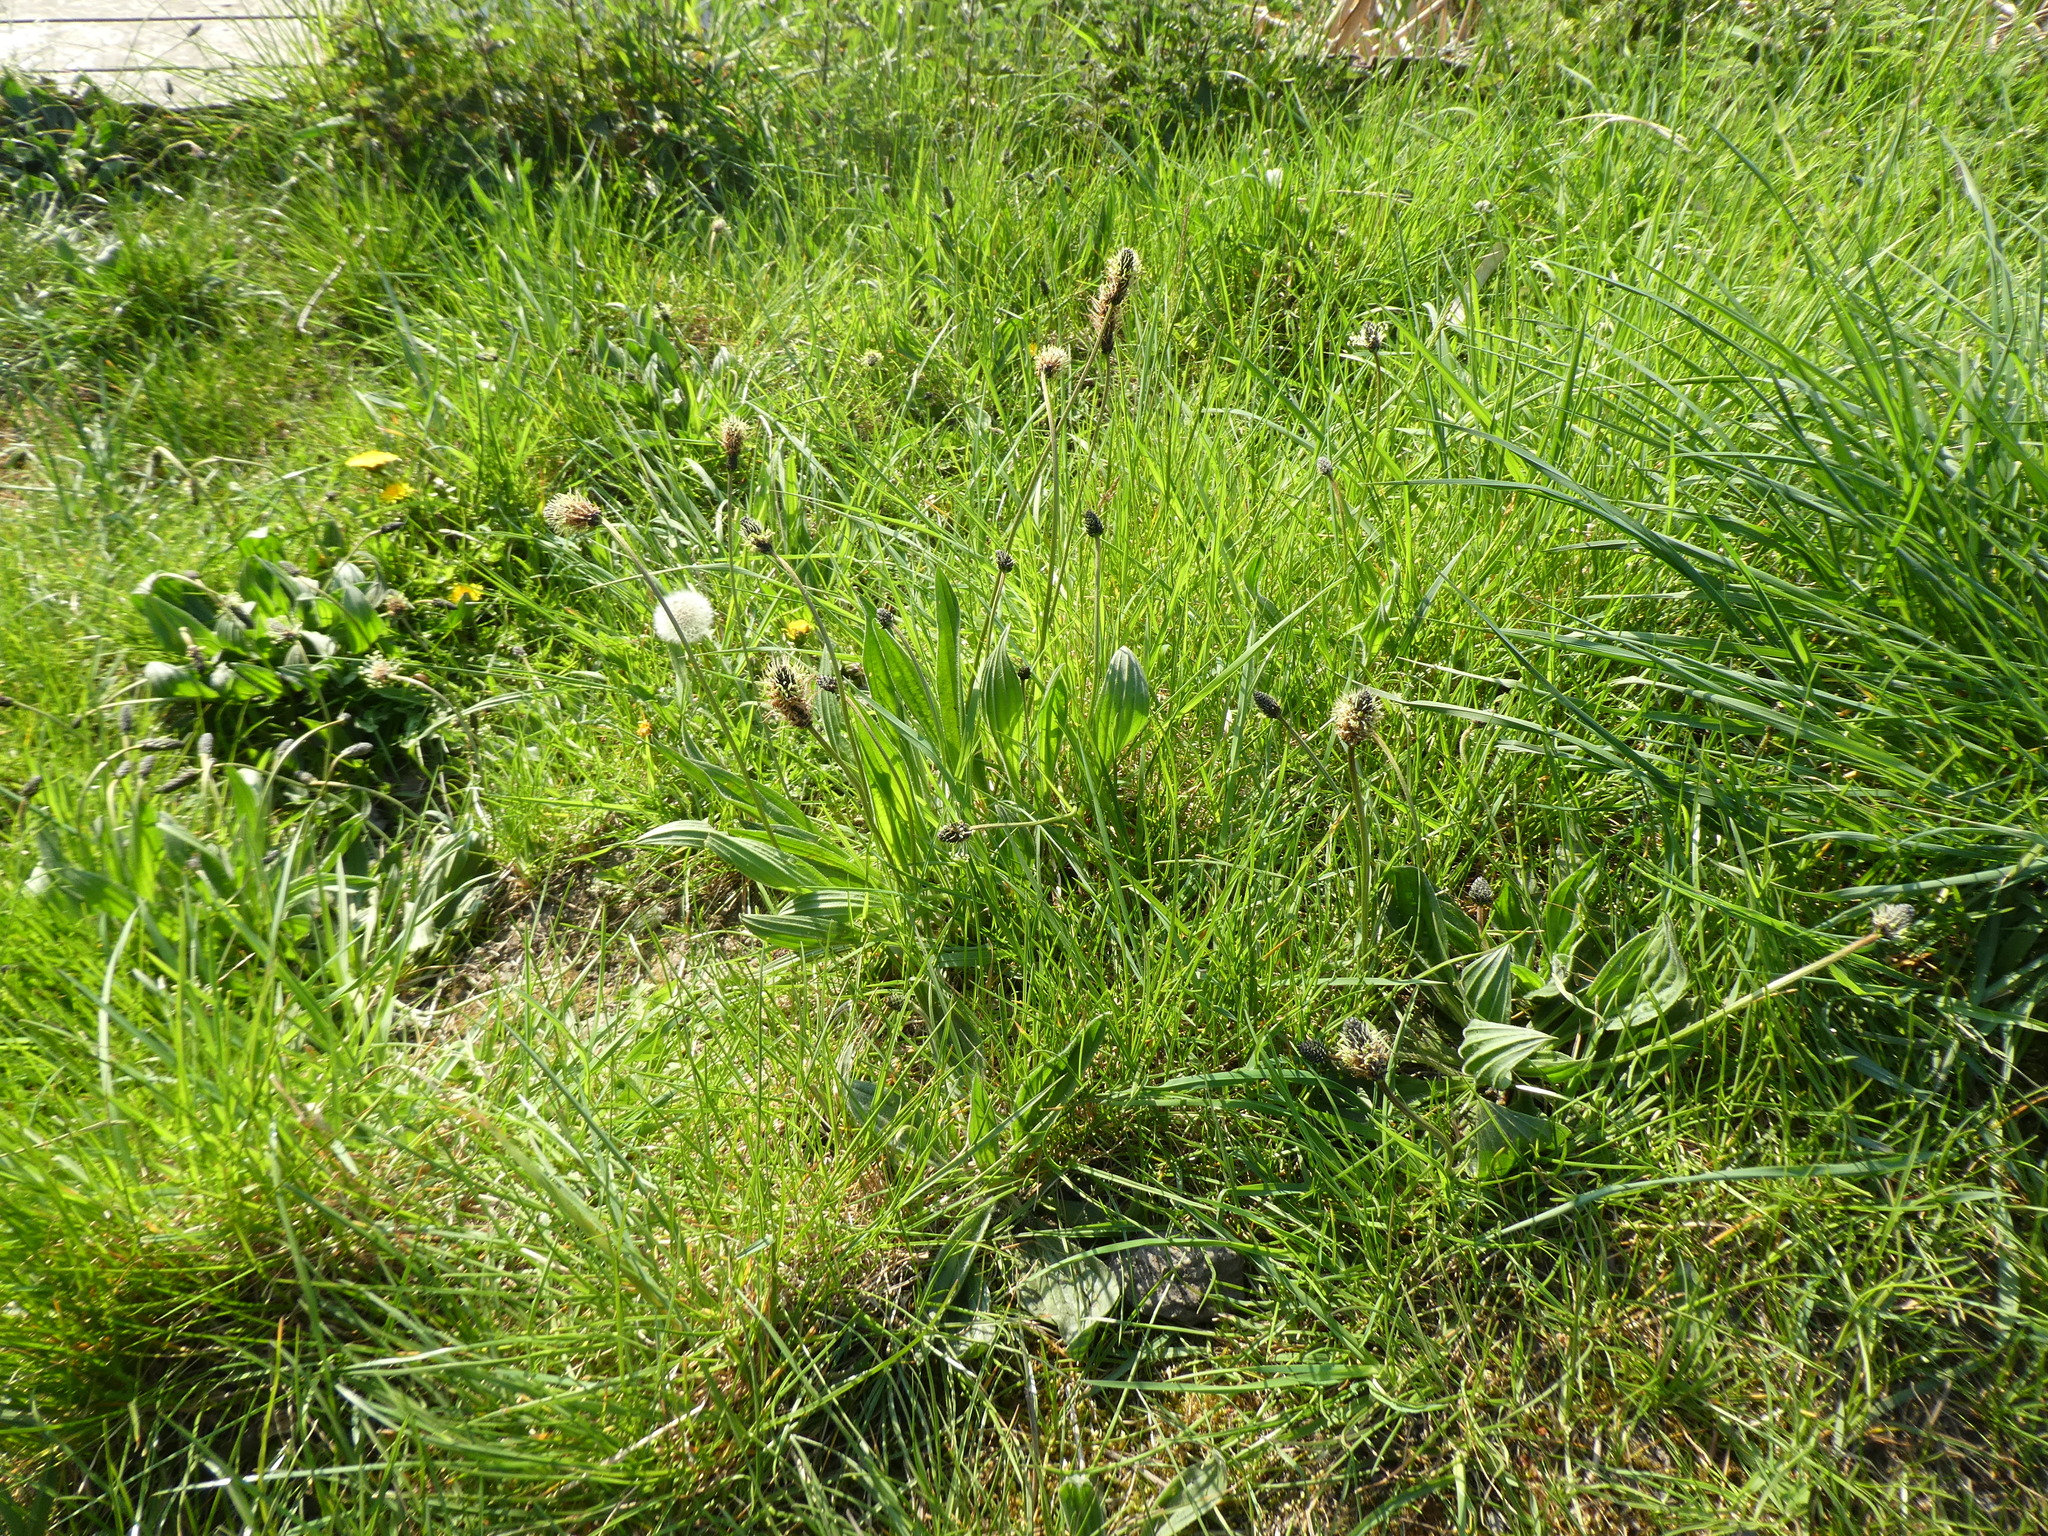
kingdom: Plantae
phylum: Tracheophyta
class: Magnoliopsida
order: Lamiales
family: Plantaginaceae
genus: Plantago
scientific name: Plantago lanceolata
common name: Ribwort plantain
